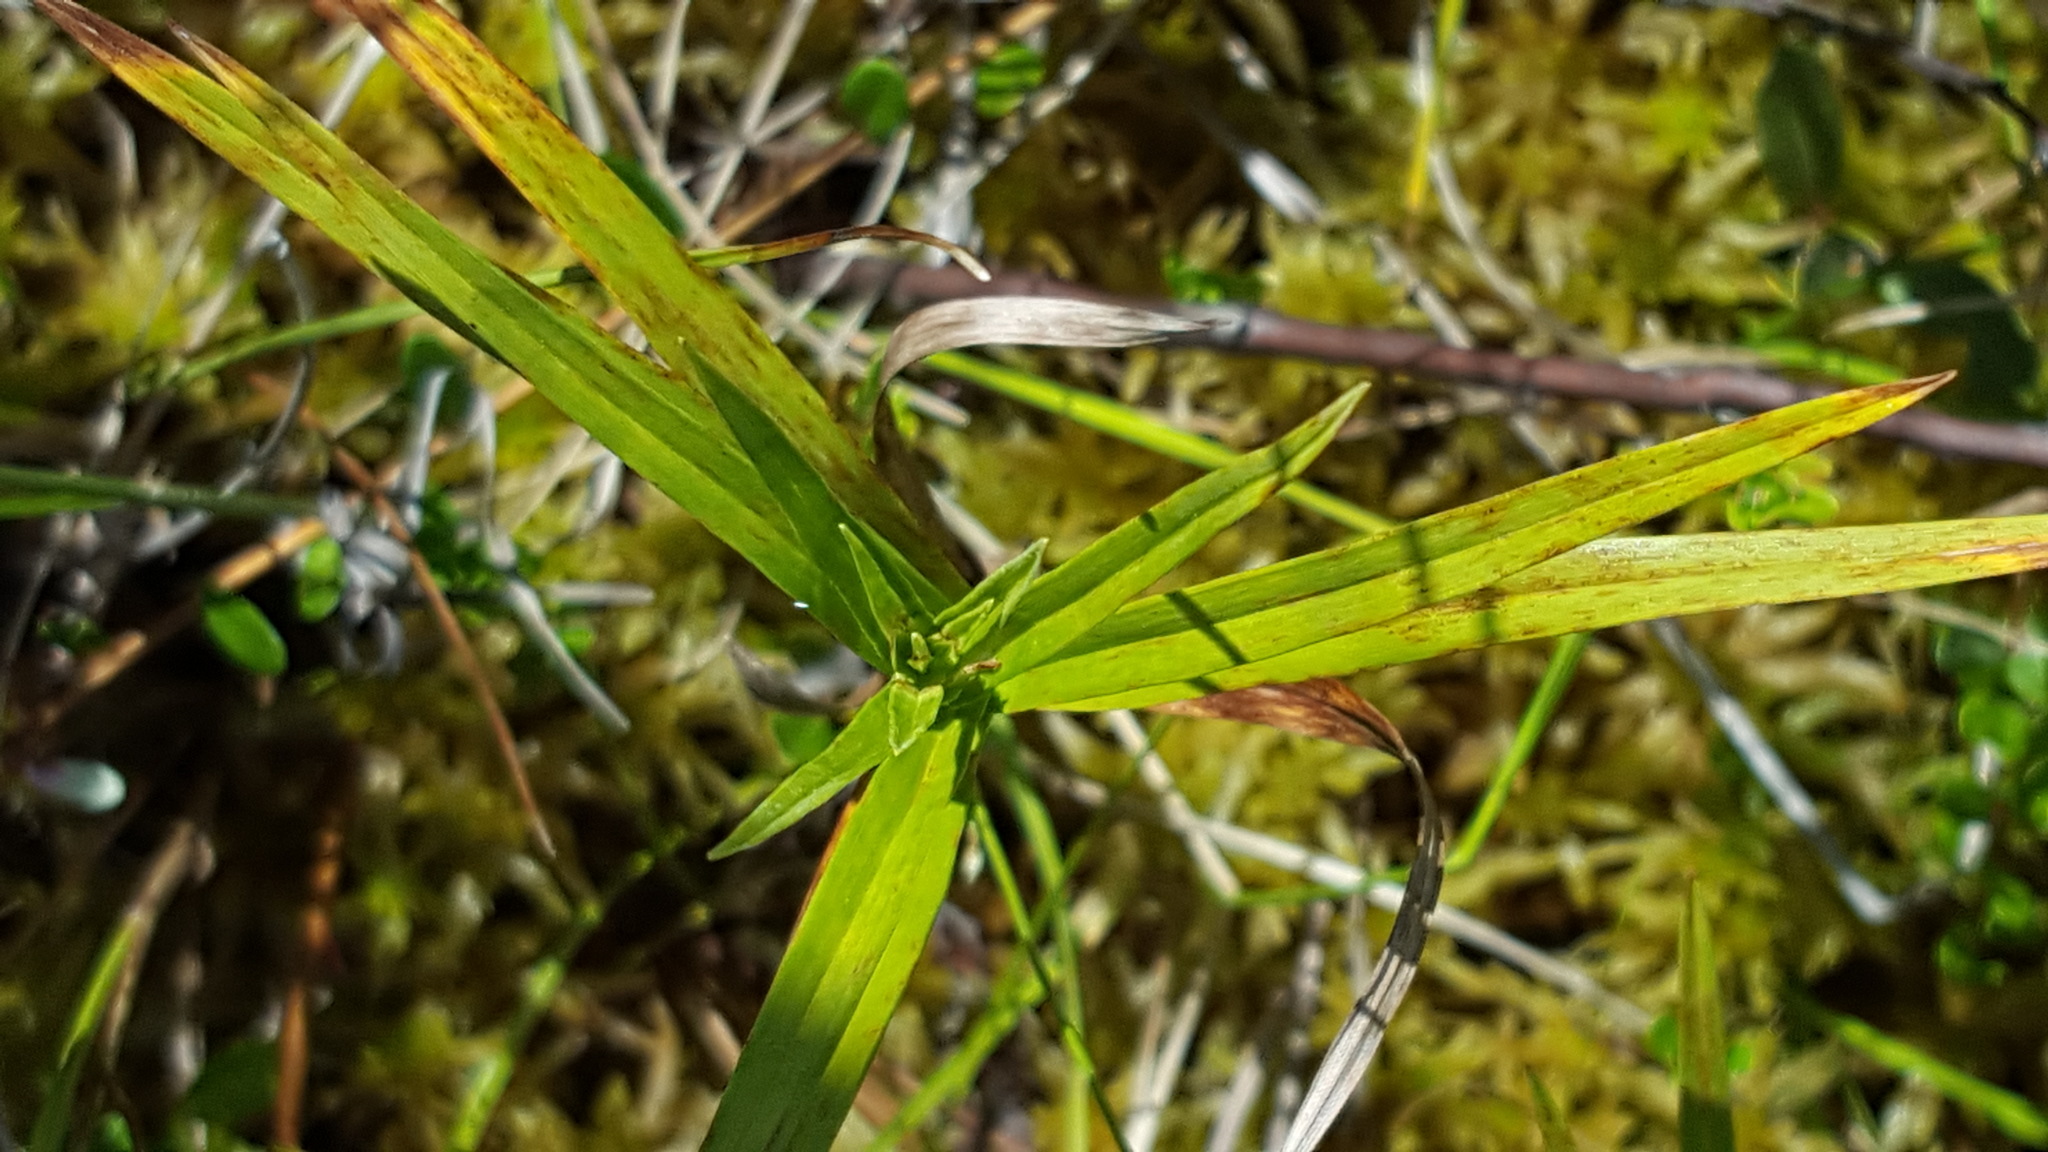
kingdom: Plantae
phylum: Tracheophyta
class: Liliopsida
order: Poales
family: Cyperaceae
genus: Dulichium
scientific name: Dulichium arundinaceum
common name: Three-way sedge
